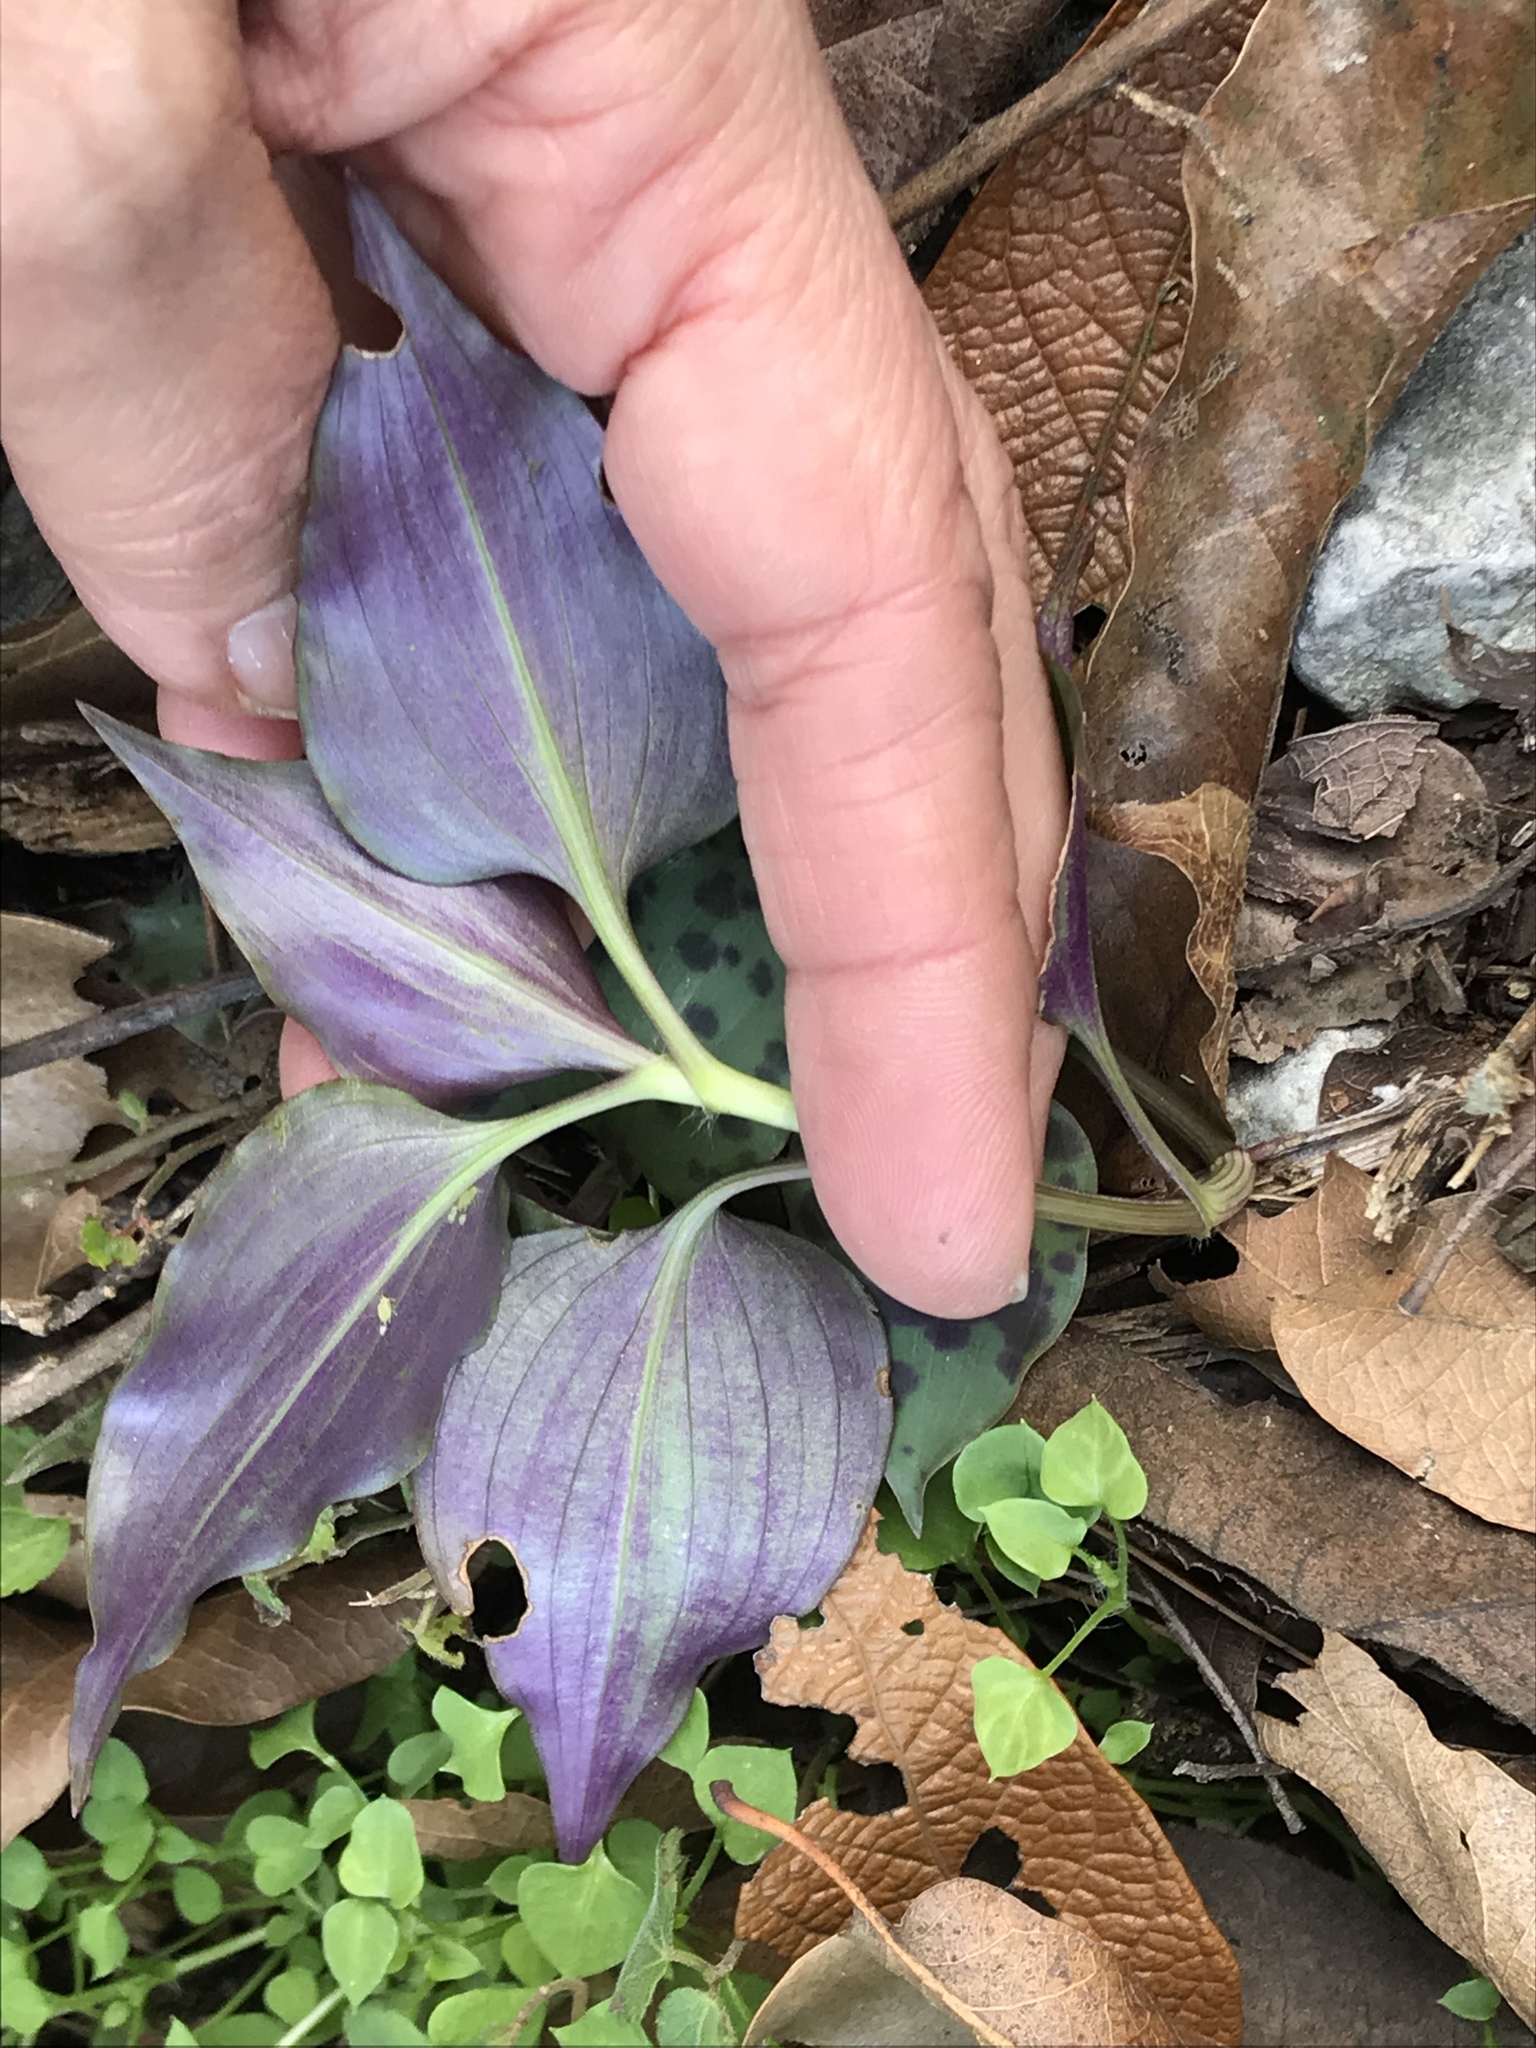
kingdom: Plantae
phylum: Tracheophyta
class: Liliopsida
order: Commelinales
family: Commelinaceae
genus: Tinantia
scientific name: Tinantia pringlei
